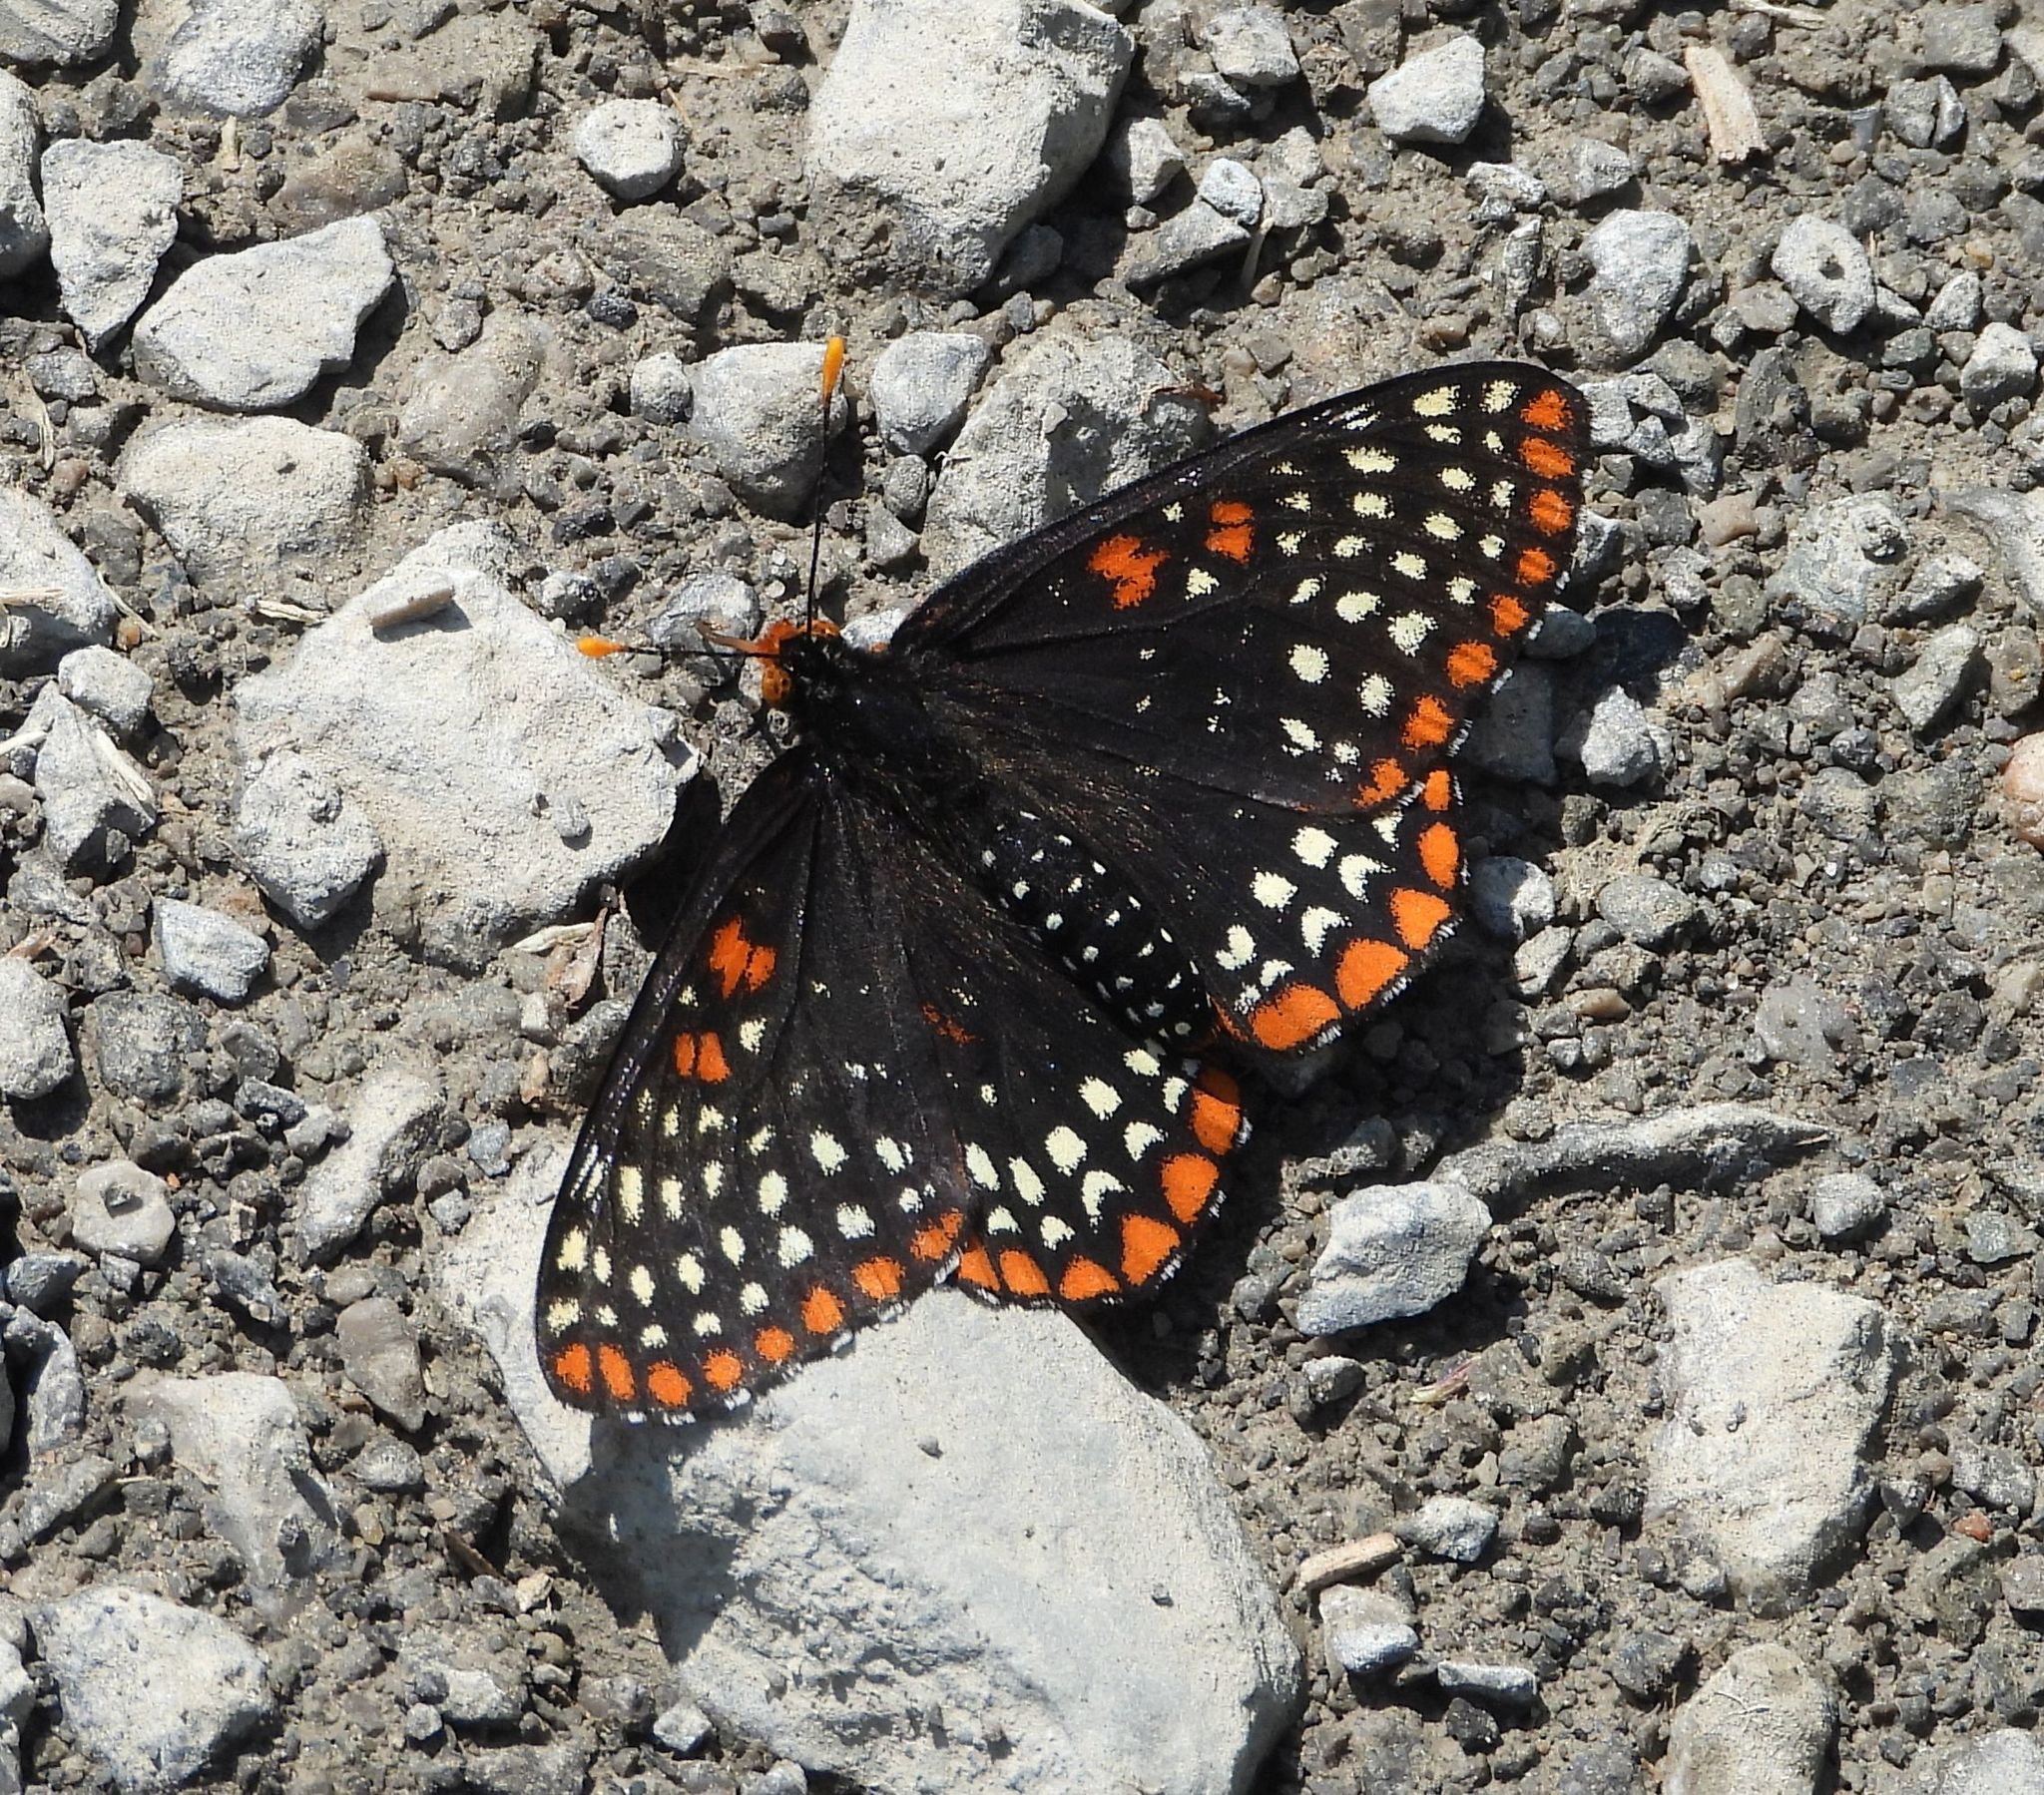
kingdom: Animalia
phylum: Arthropoda
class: Insecta
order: Lepidoptera
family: Nymphalidae
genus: Euphydryas
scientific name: Euphydryas phaeton
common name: Baltimore checkerspot
